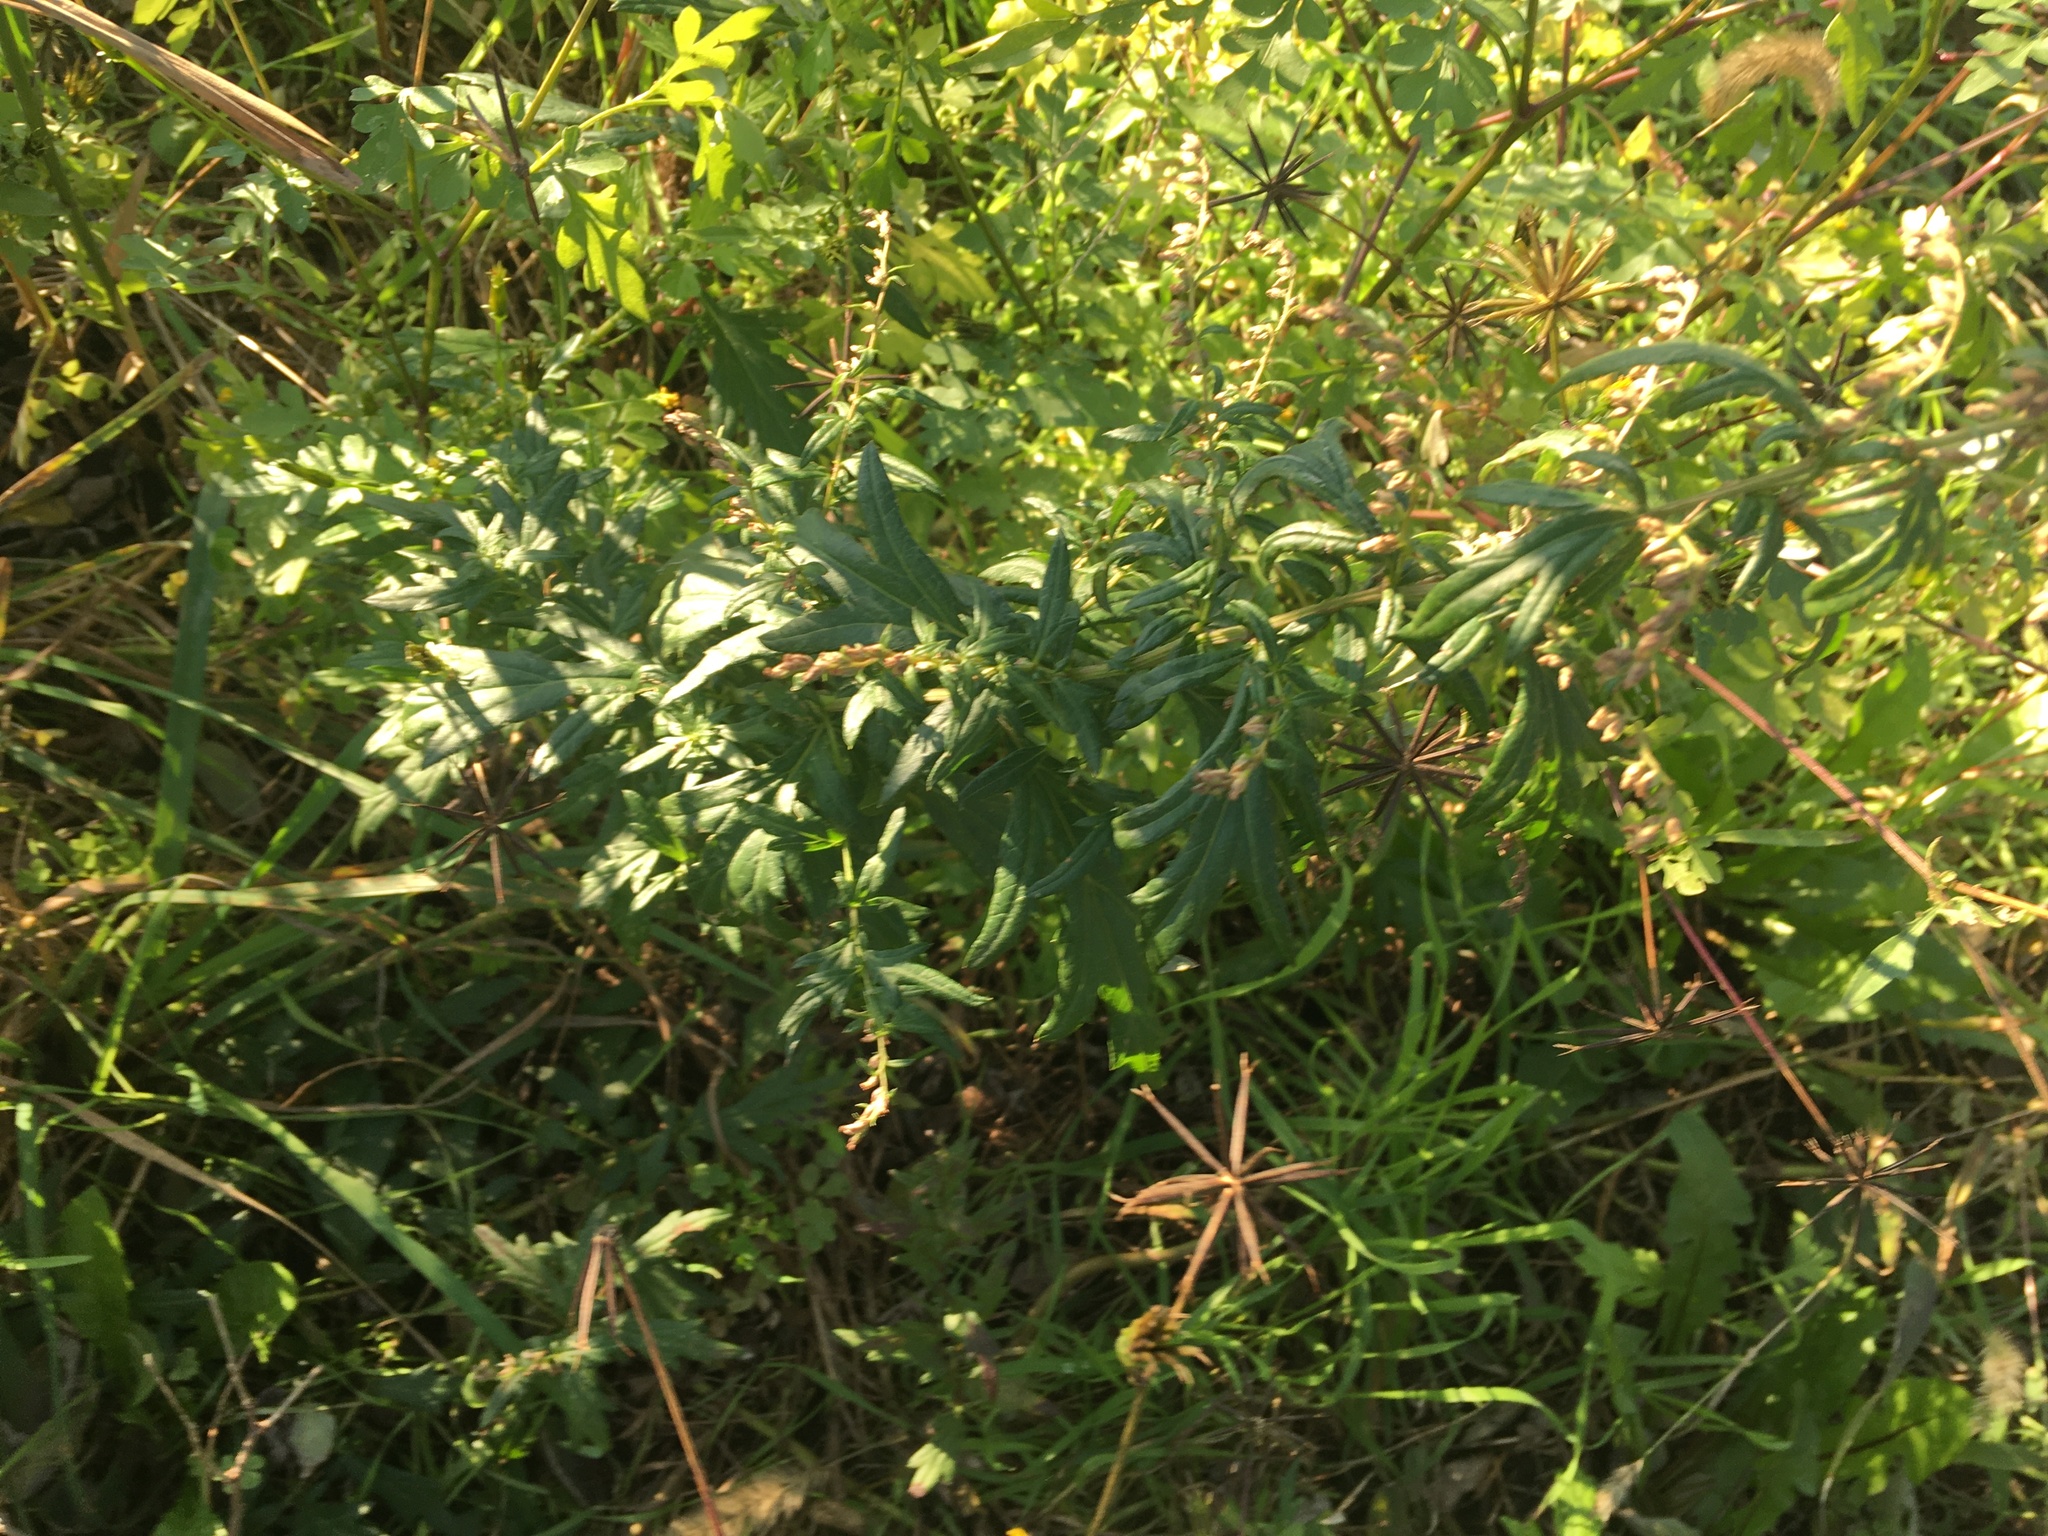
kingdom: Plantae
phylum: Tracheophyta
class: Magnoliopsida
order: Asterales
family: Asteraceae
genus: Artemisia
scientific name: Artemisia vulgaris
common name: Mugwort
